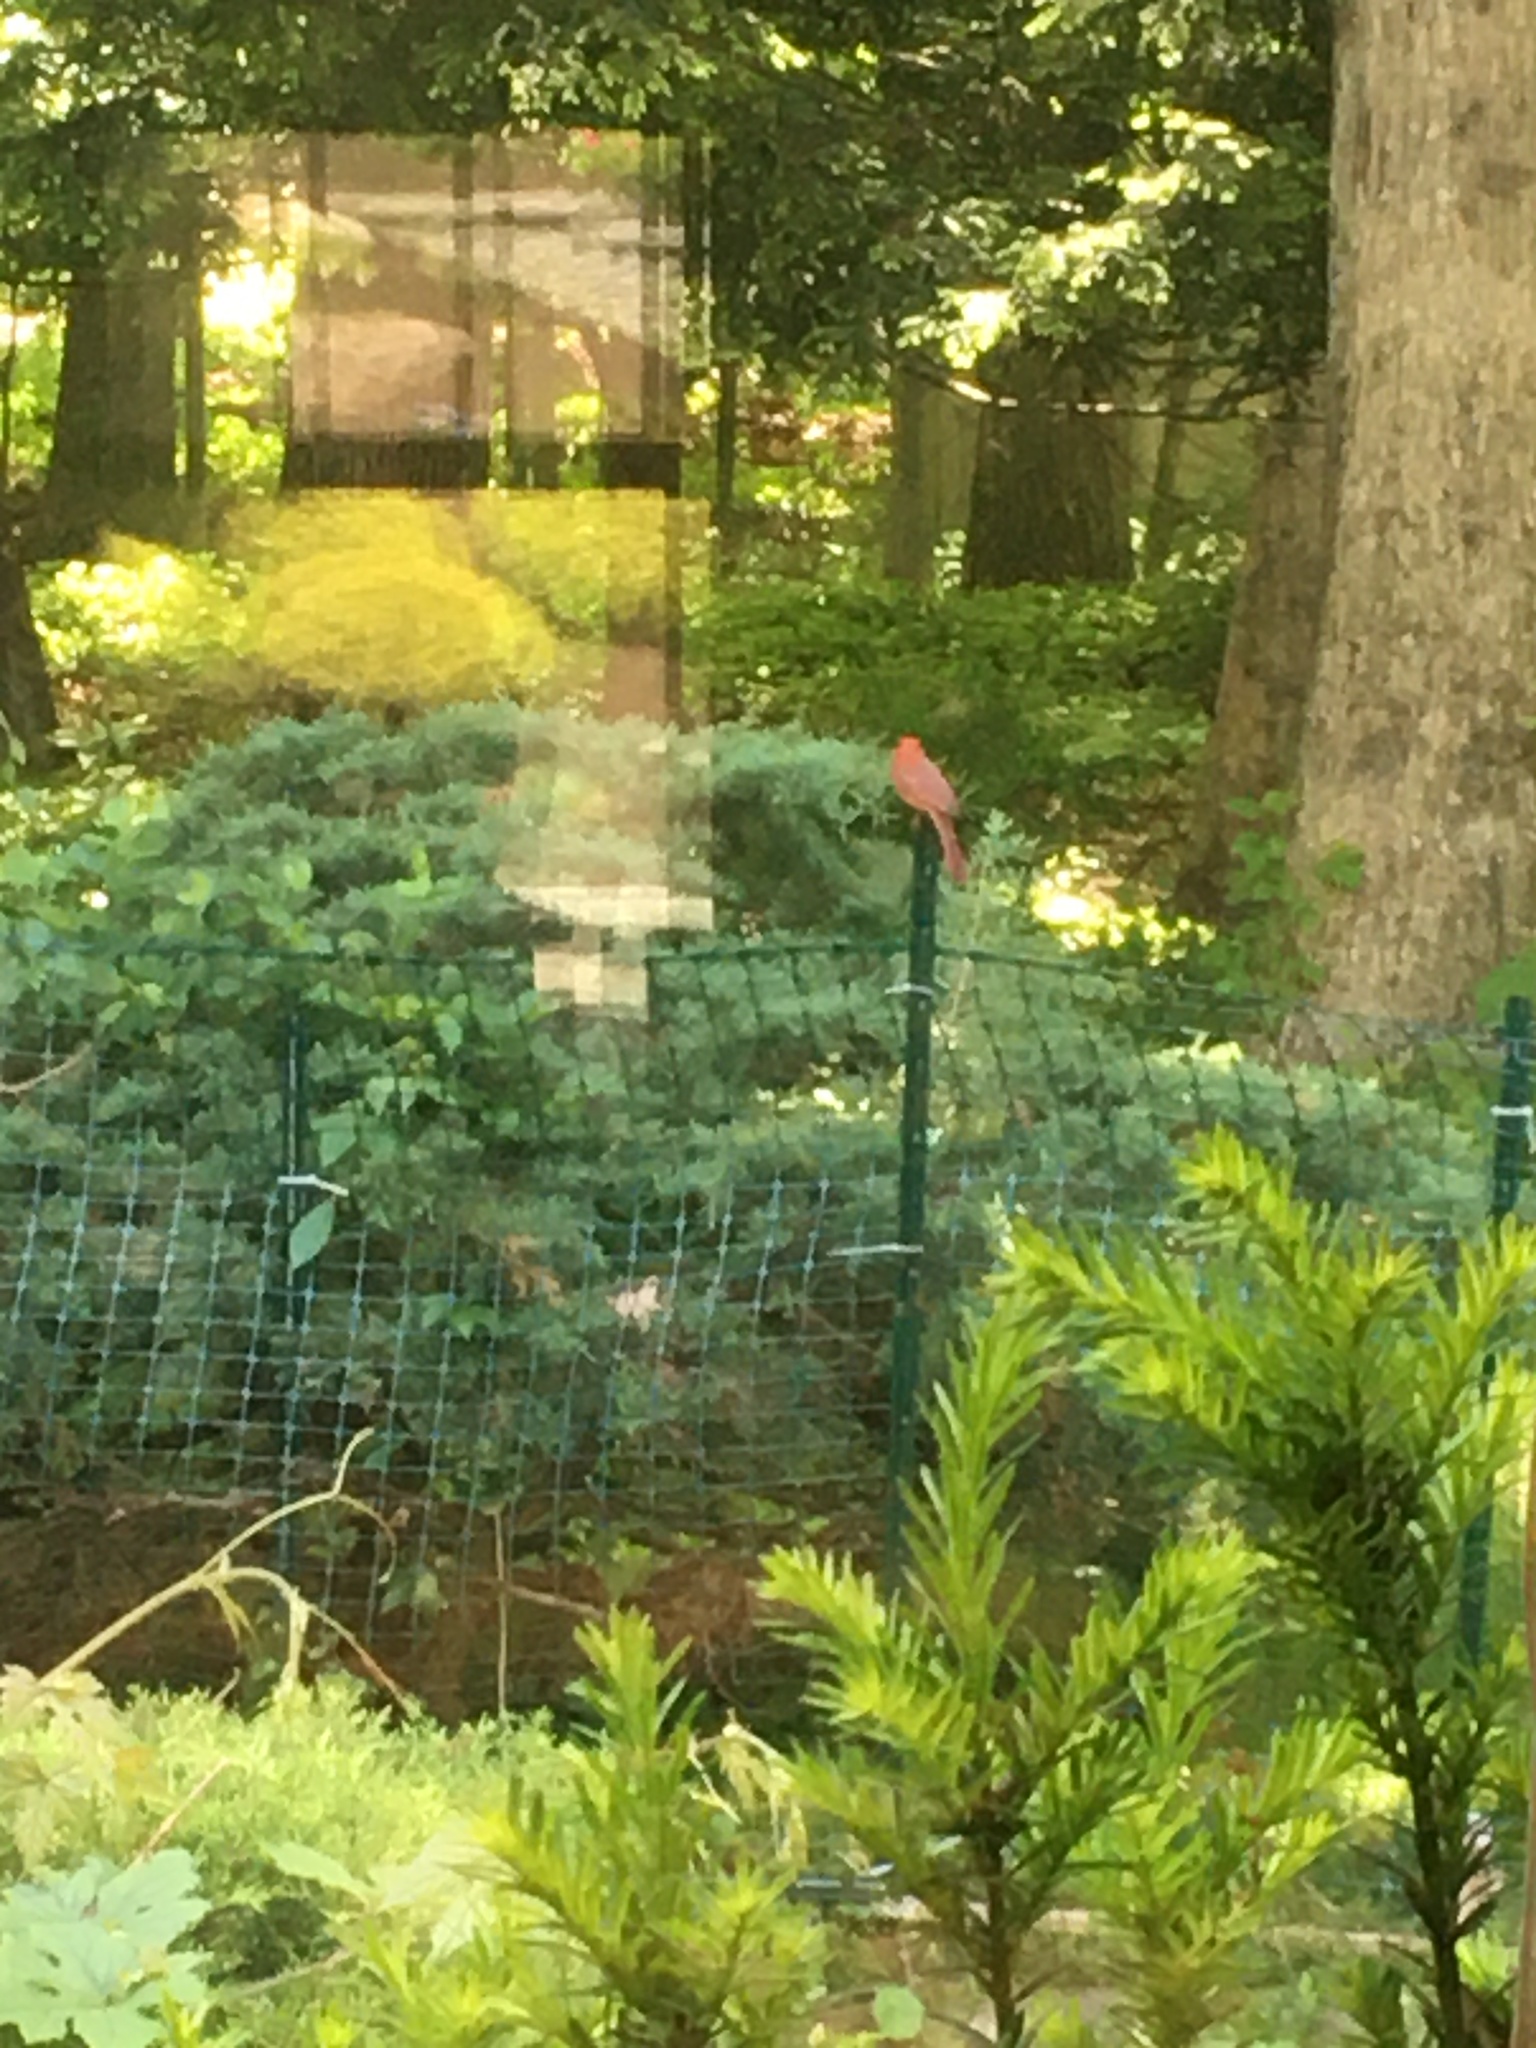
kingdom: Animalia
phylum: Chordata
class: Aves
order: Passeriformes
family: Cardinalidae
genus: Cardinalis
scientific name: Cardinalis cardinalis
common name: Northern cardinal
